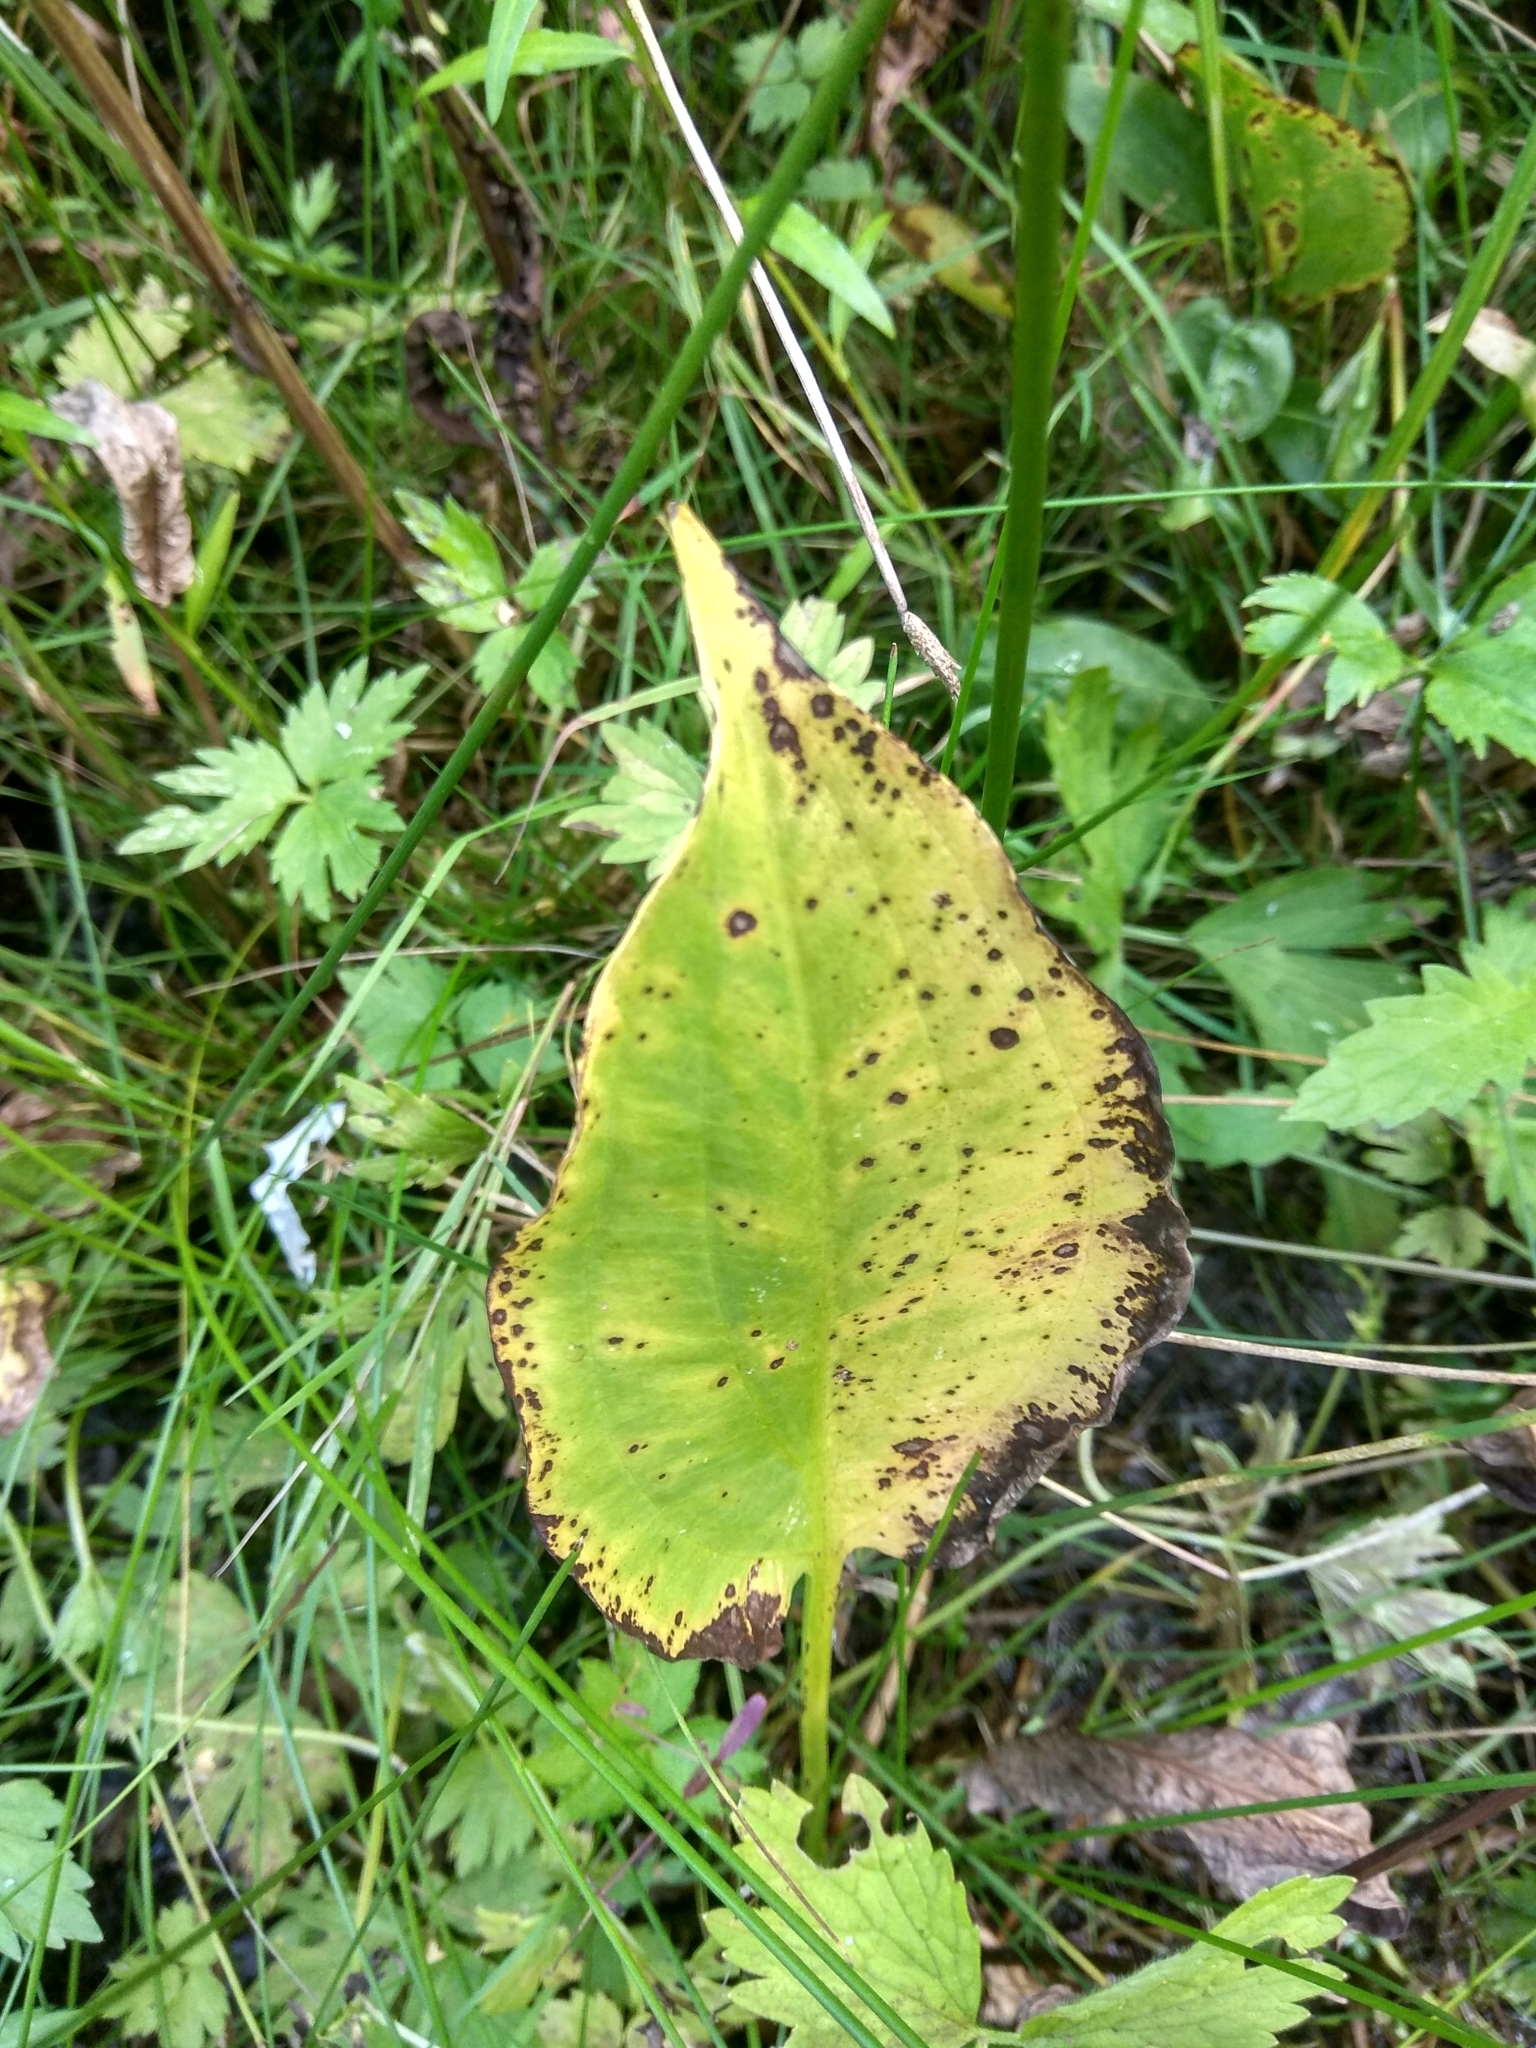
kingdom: Plantae
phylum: Tracheophyta
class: Liliopsida
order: Alismatales
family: Alismataceae
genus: Alisma
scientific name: Alisma plantago-aquatica
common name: Water-plantain
